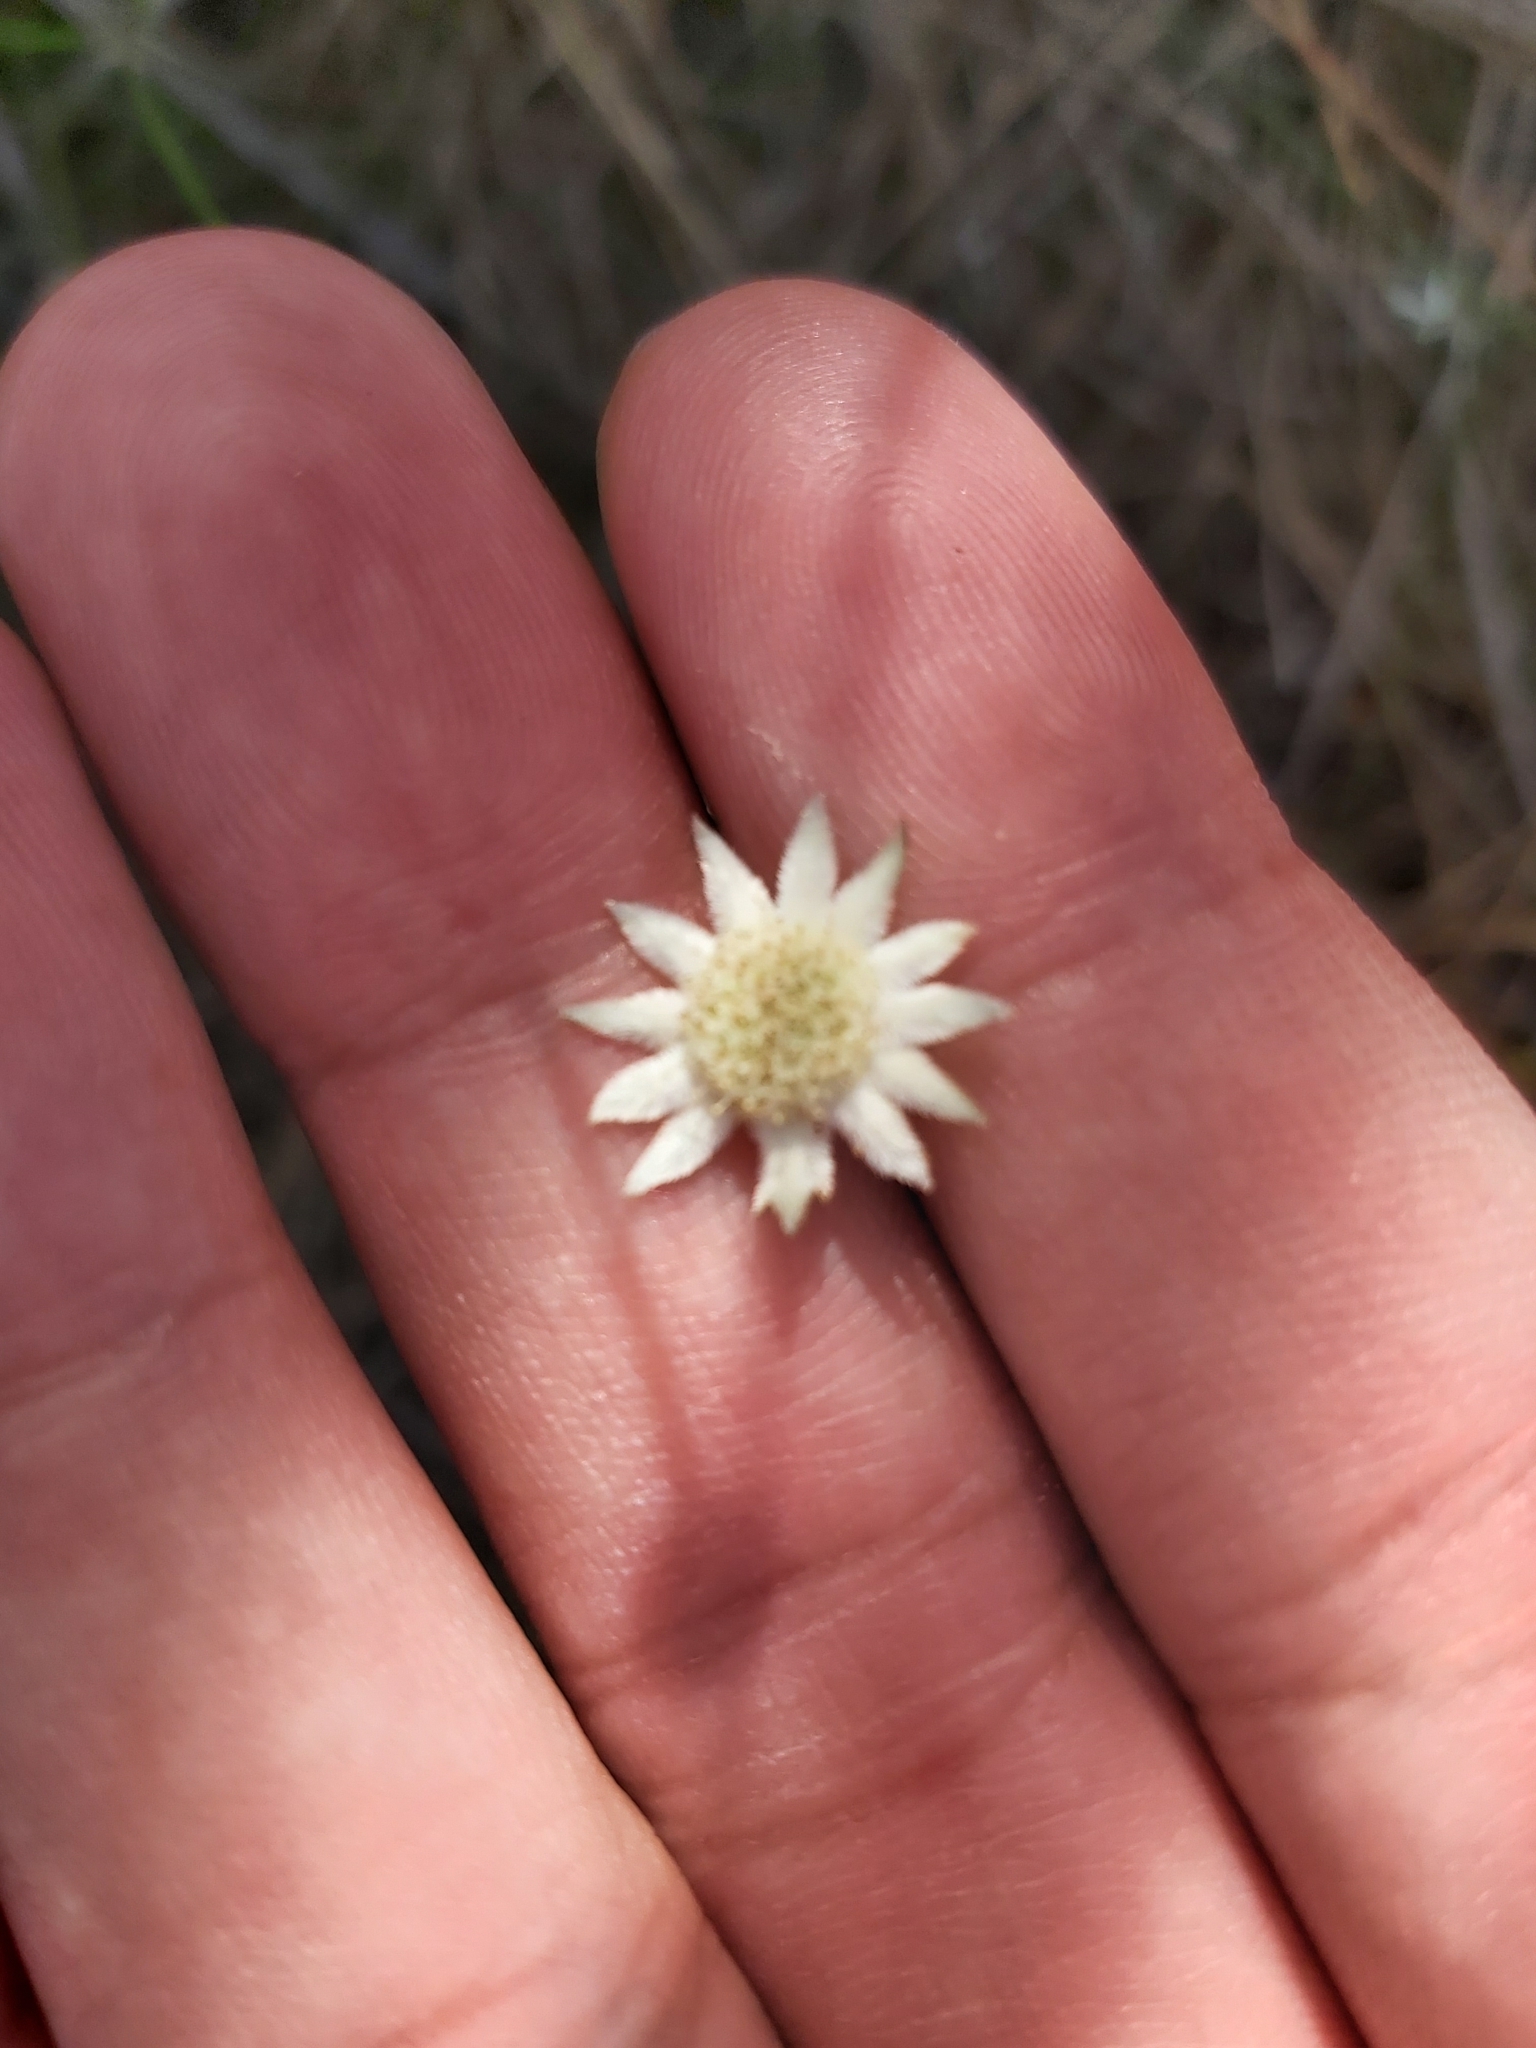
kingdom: Plantae
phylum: Tracheophyta
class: Magnoliopsida
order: Apiales
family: Apiaceae
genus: Actinotus
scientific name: Actinotus minor
